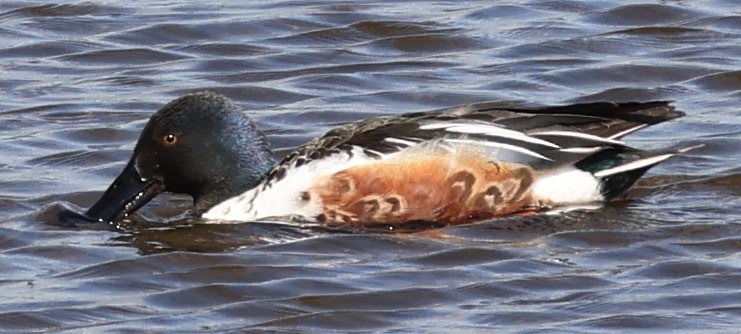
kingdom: Animalia
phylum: Chordata
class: Aves
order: Anseriformes
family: Anatidae
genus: Spatula
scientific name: Spatula clypeata
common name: Northern shoveler
